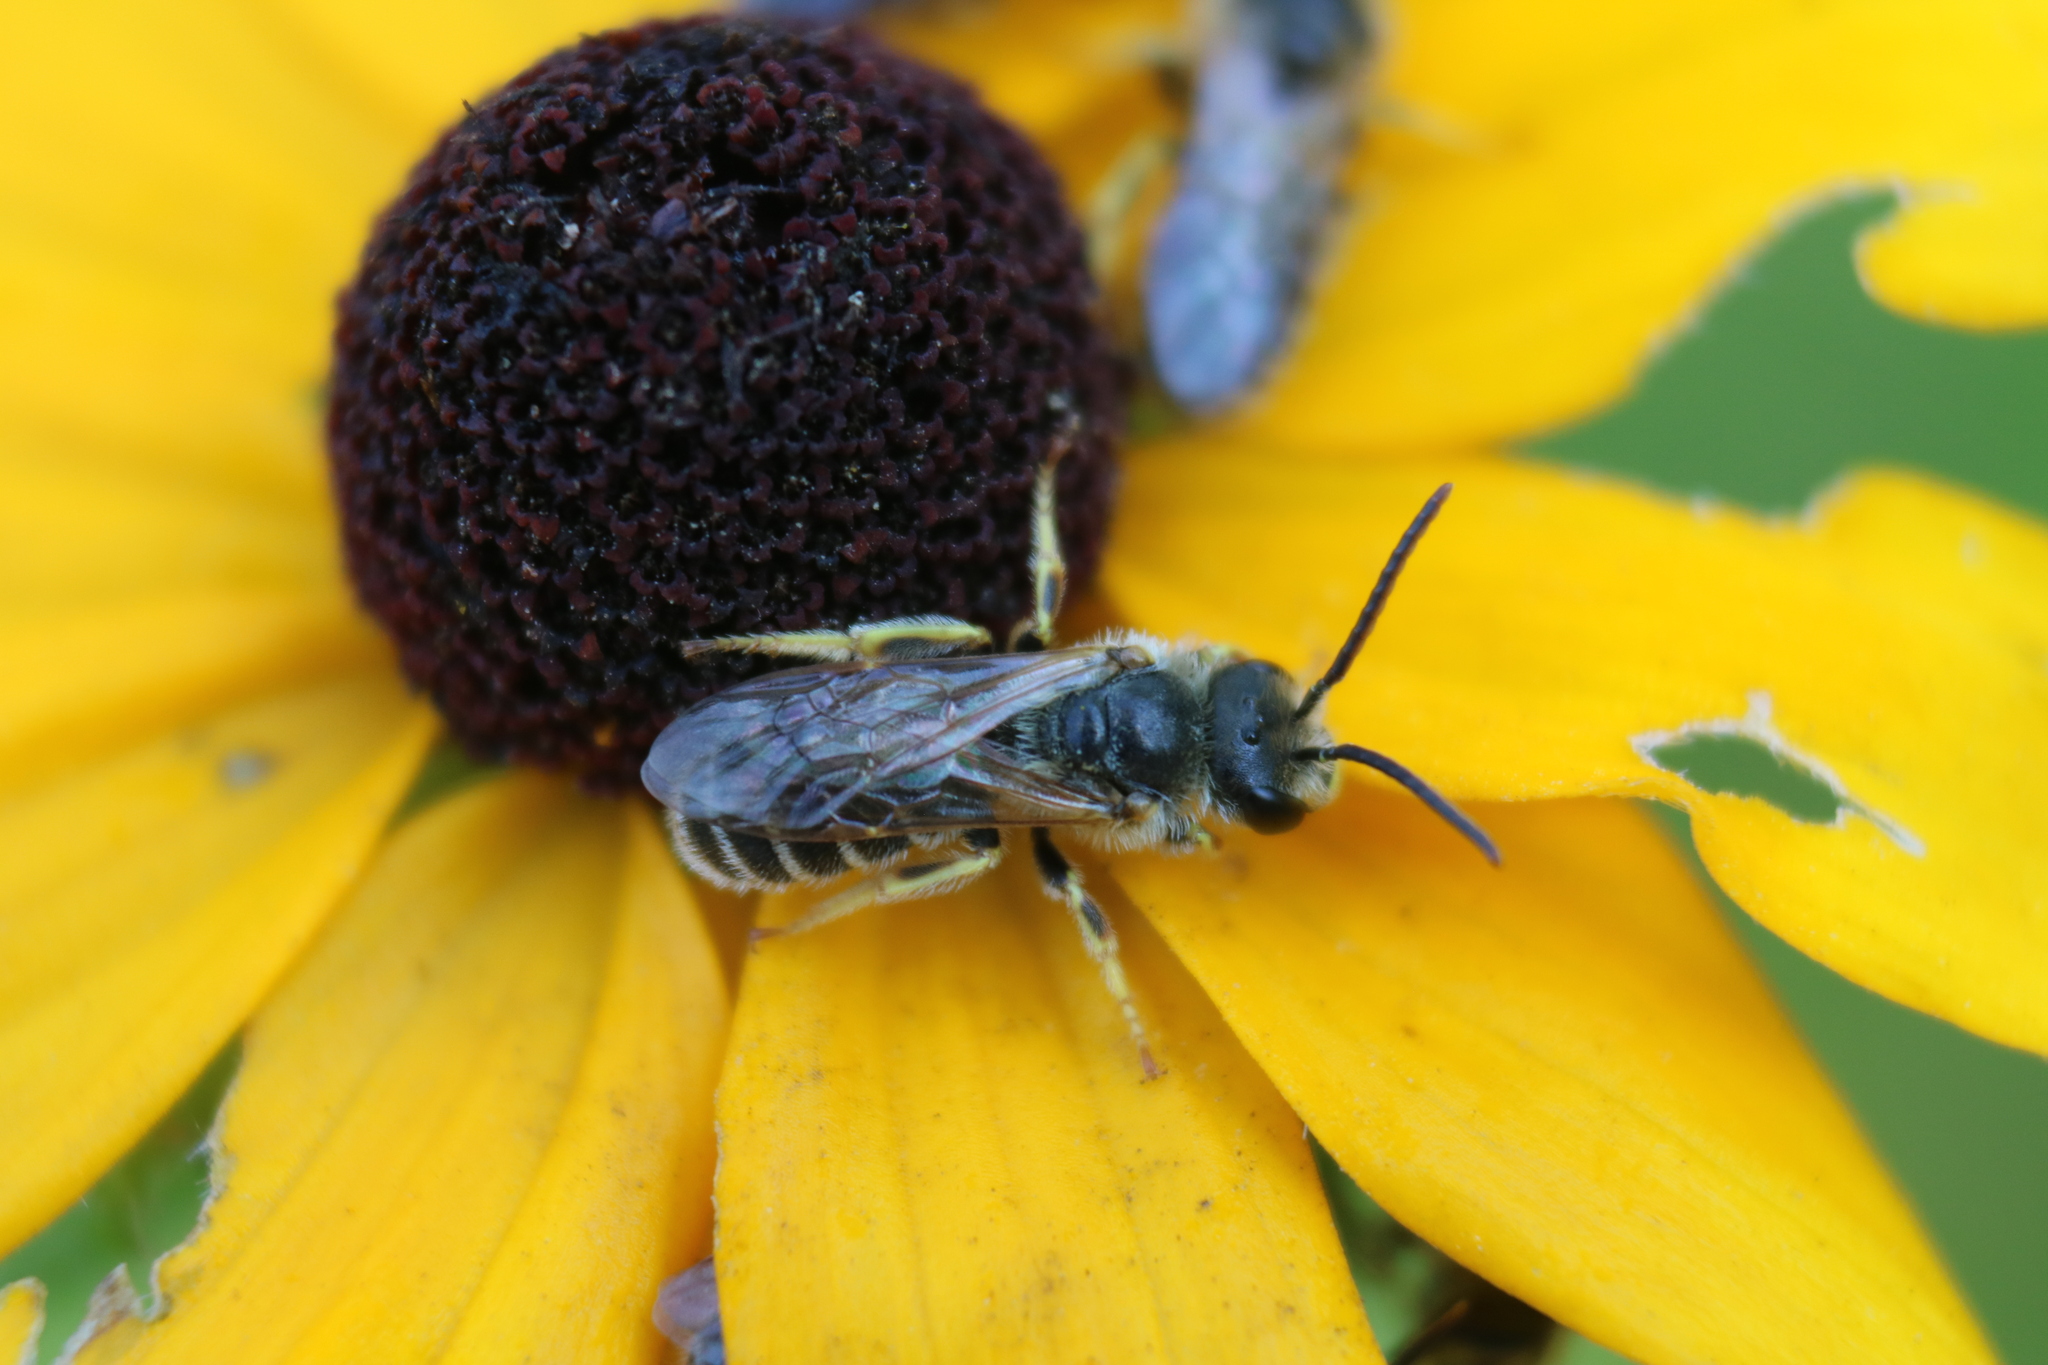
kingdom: Animalia
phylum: Arthropoda
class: Insecta
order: Hymenoptera
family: Halictidae
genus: Halictus
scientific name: Halictus ligatus
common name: Ligated furrow bee
